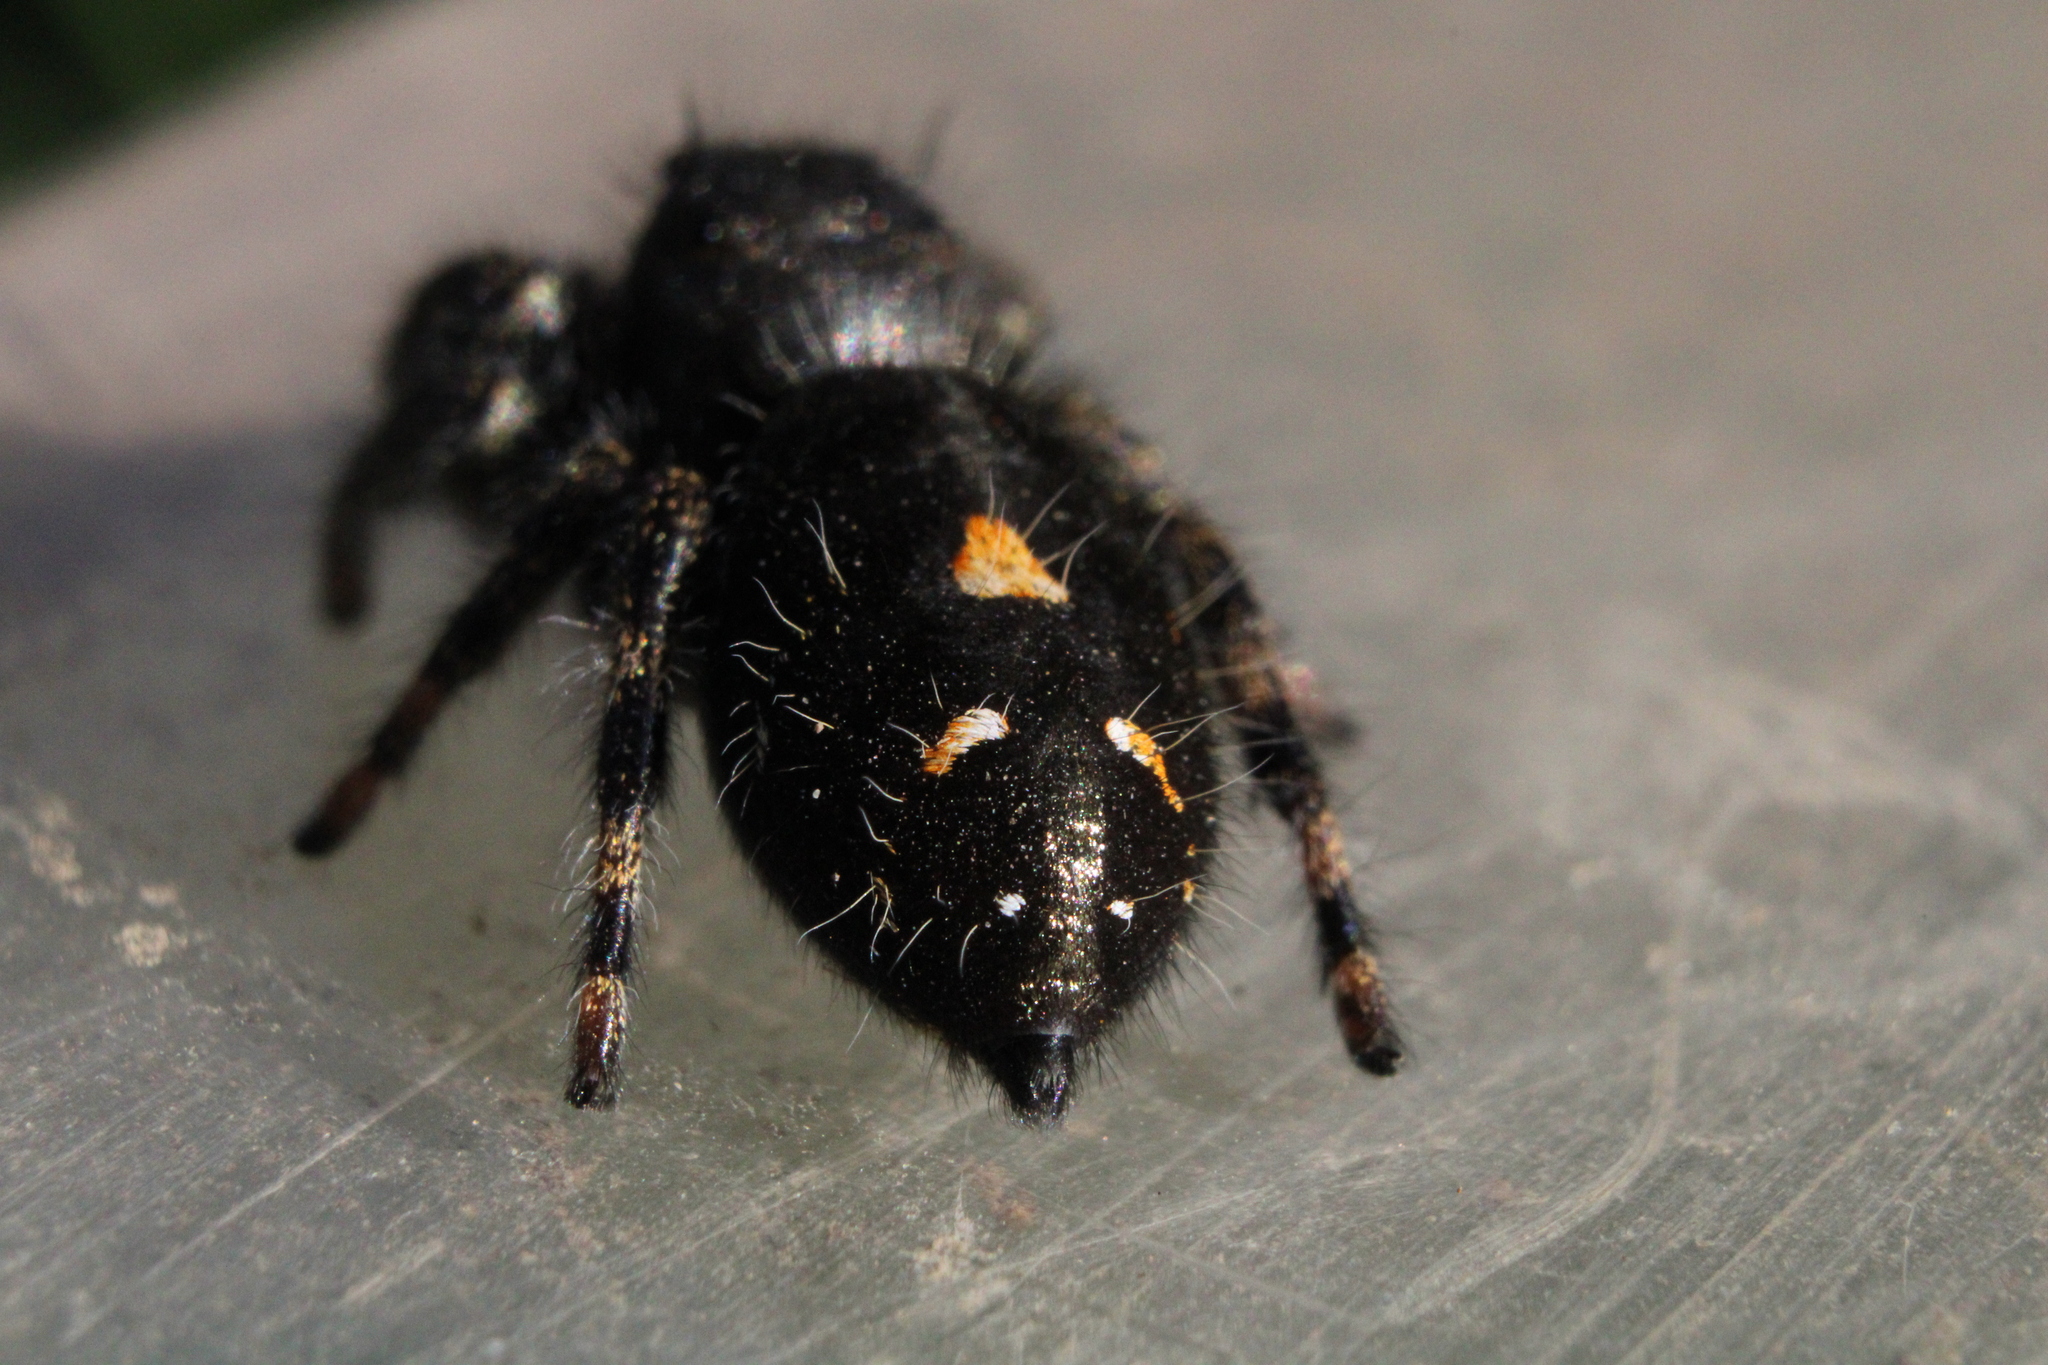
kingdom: Animalia
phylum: Arthropoda
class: Arachnida
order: Araneae
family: Salticidae
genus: Phidippus
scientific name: Phidippus audax
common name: Bold jumper
